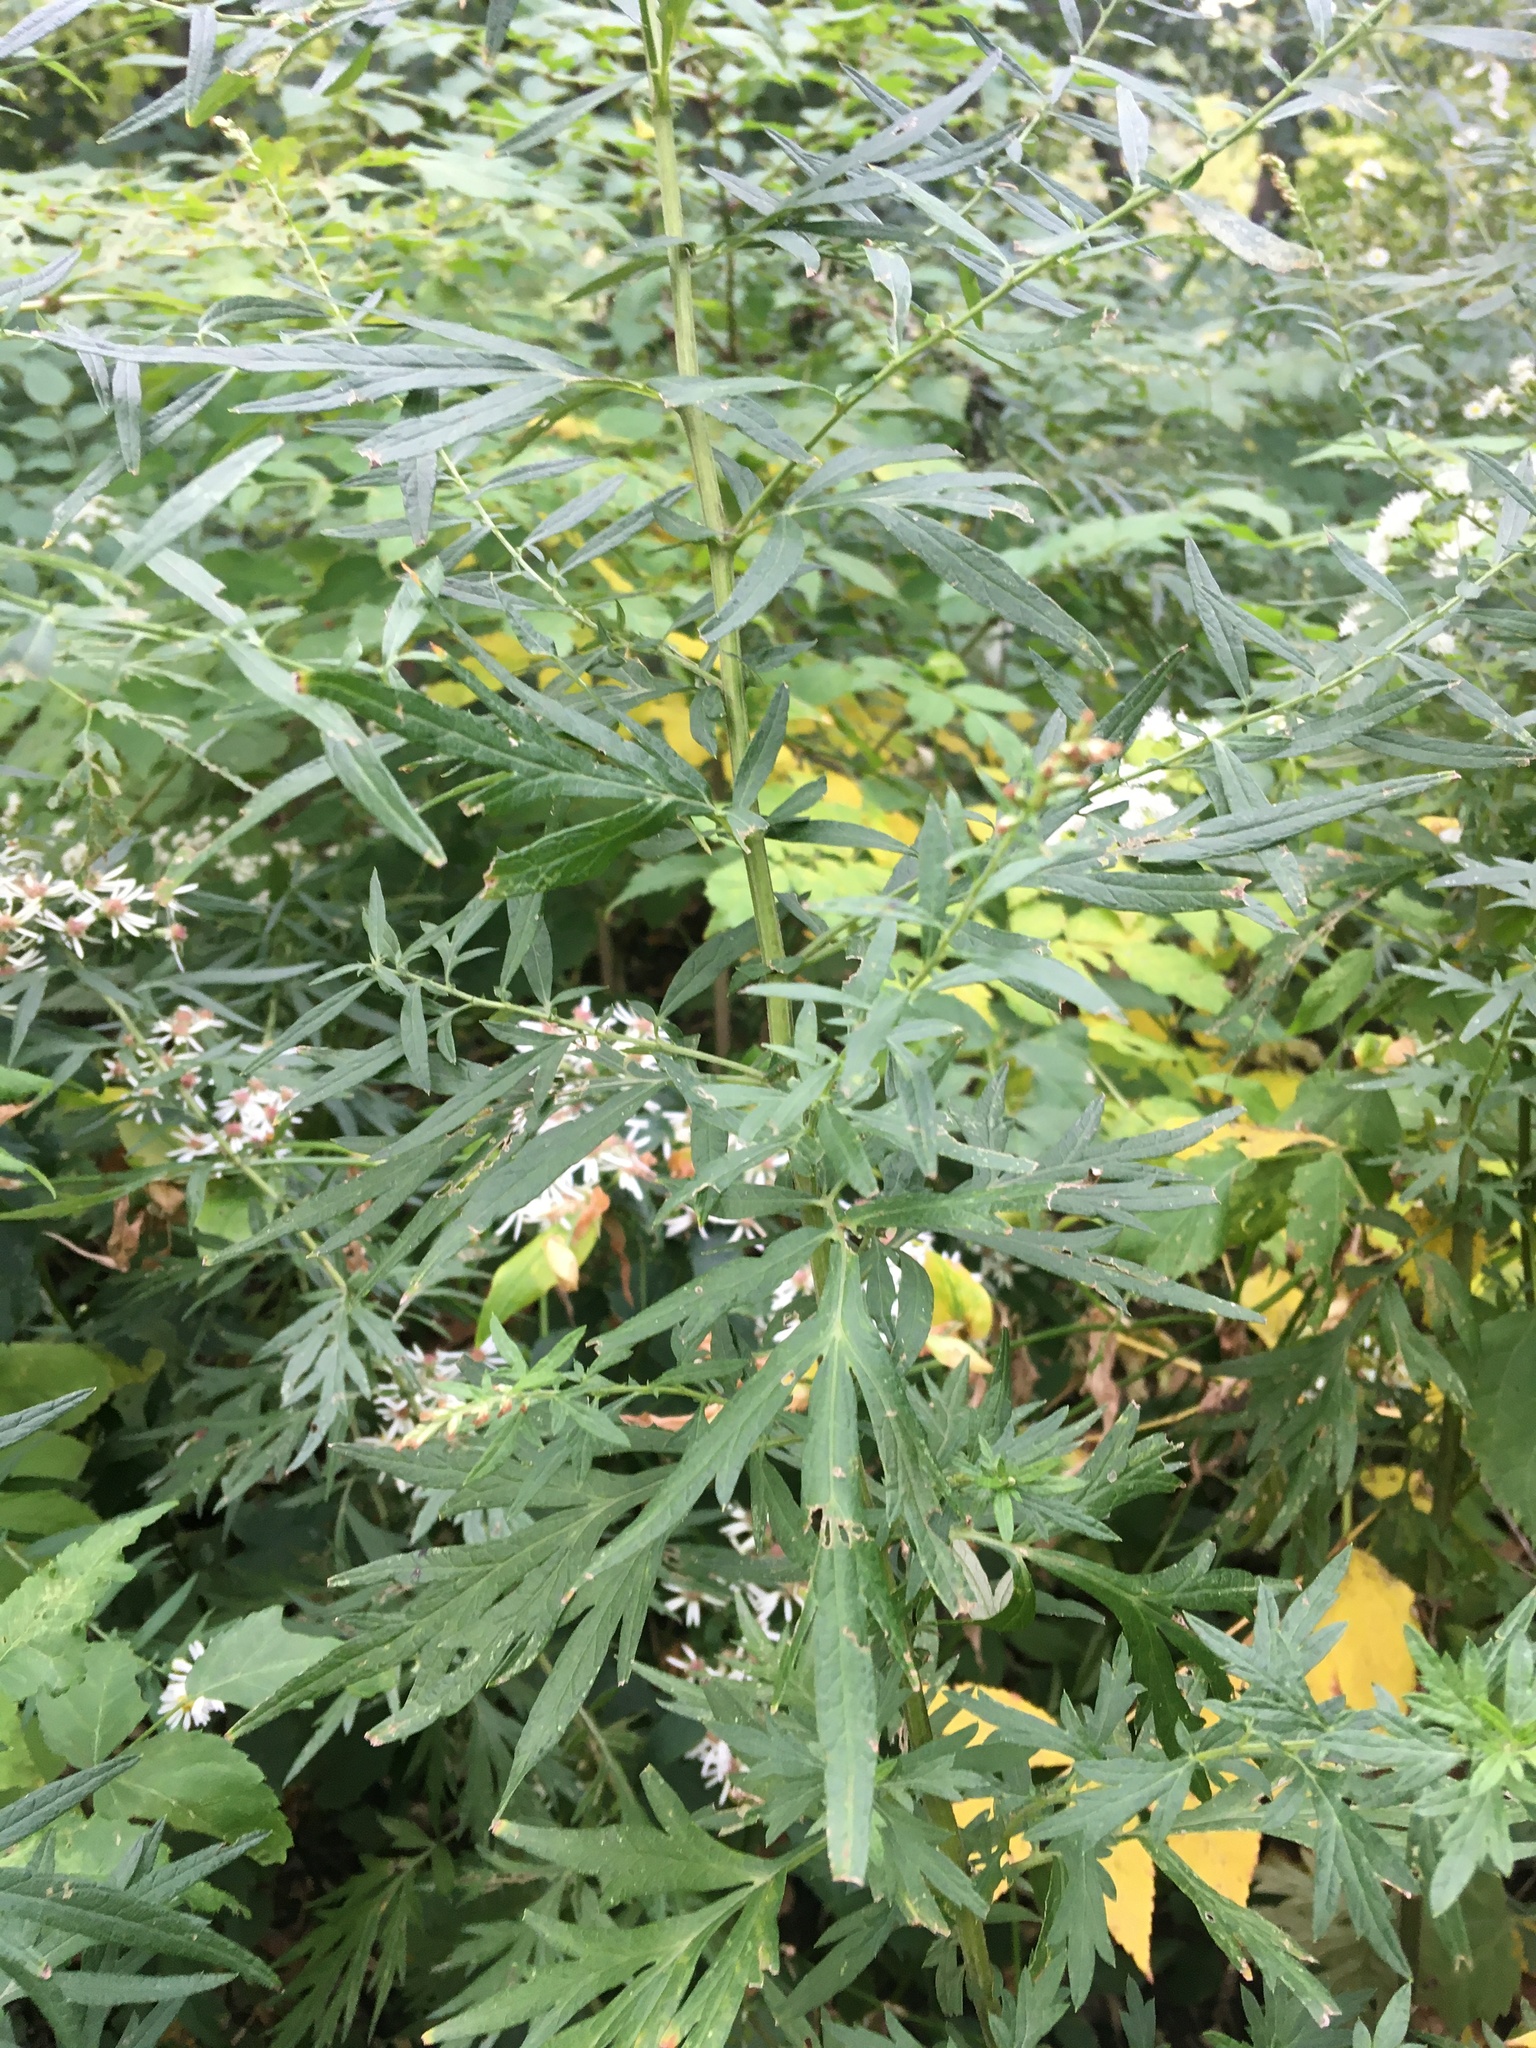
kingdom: Plantae
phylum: Tracheophyta
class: Magnoliopsida
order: Asterales
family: Asteraceae
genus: Artemisia
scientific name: Artemisia vulgaris
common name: Mugwort
